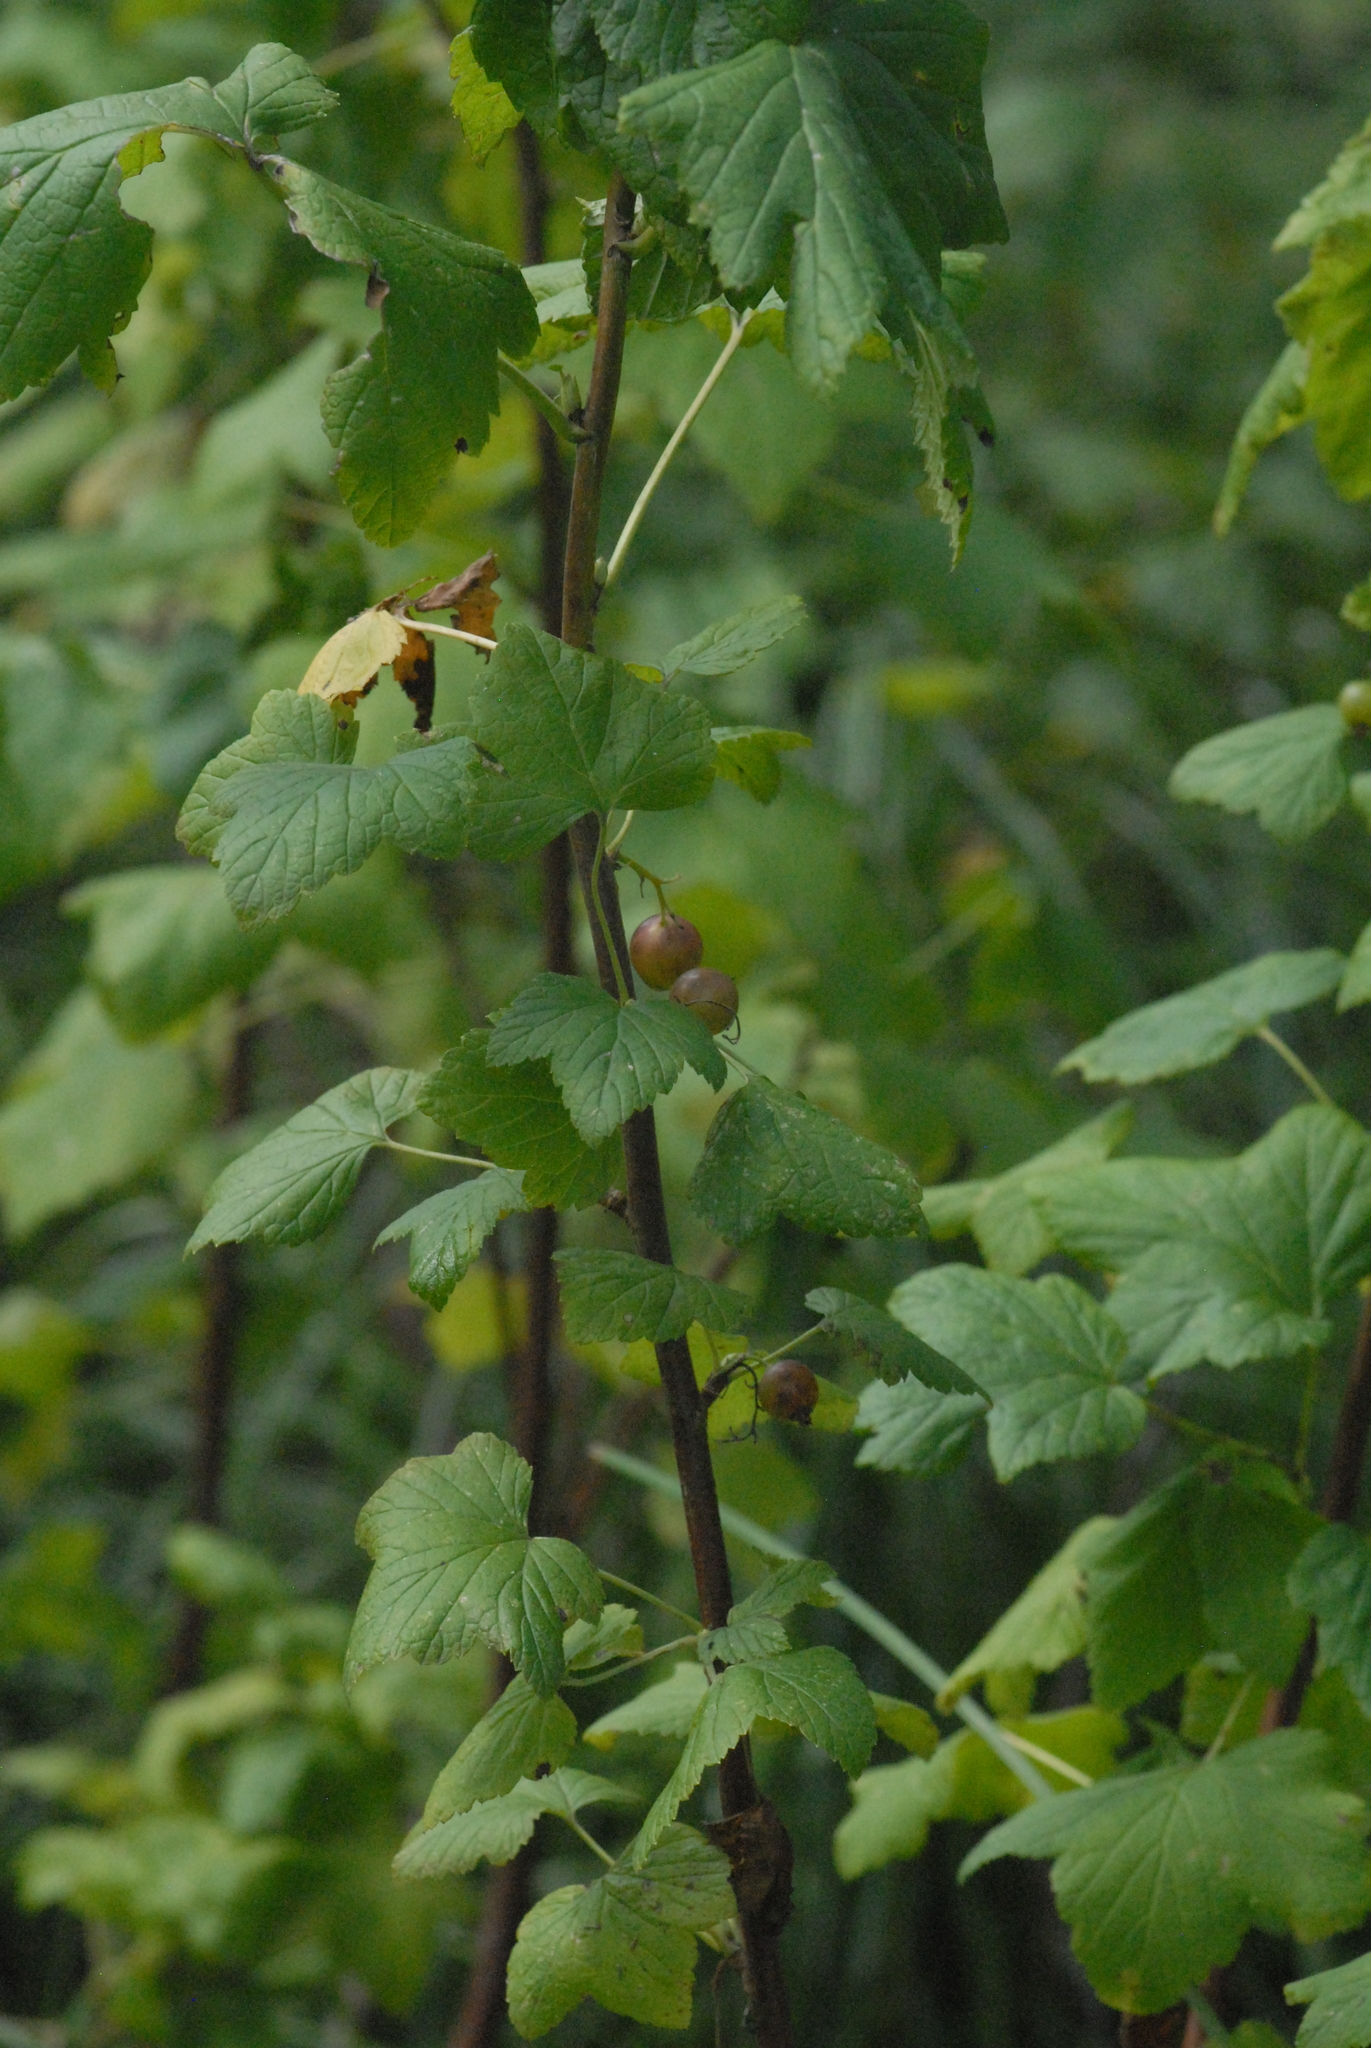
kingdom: Plantae
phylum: Tracheophyta
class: Magnoliopsida
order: Saxifragales
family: Grossulariaceae
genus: Ribes
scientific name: Ribes nigrum
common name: Black currant
